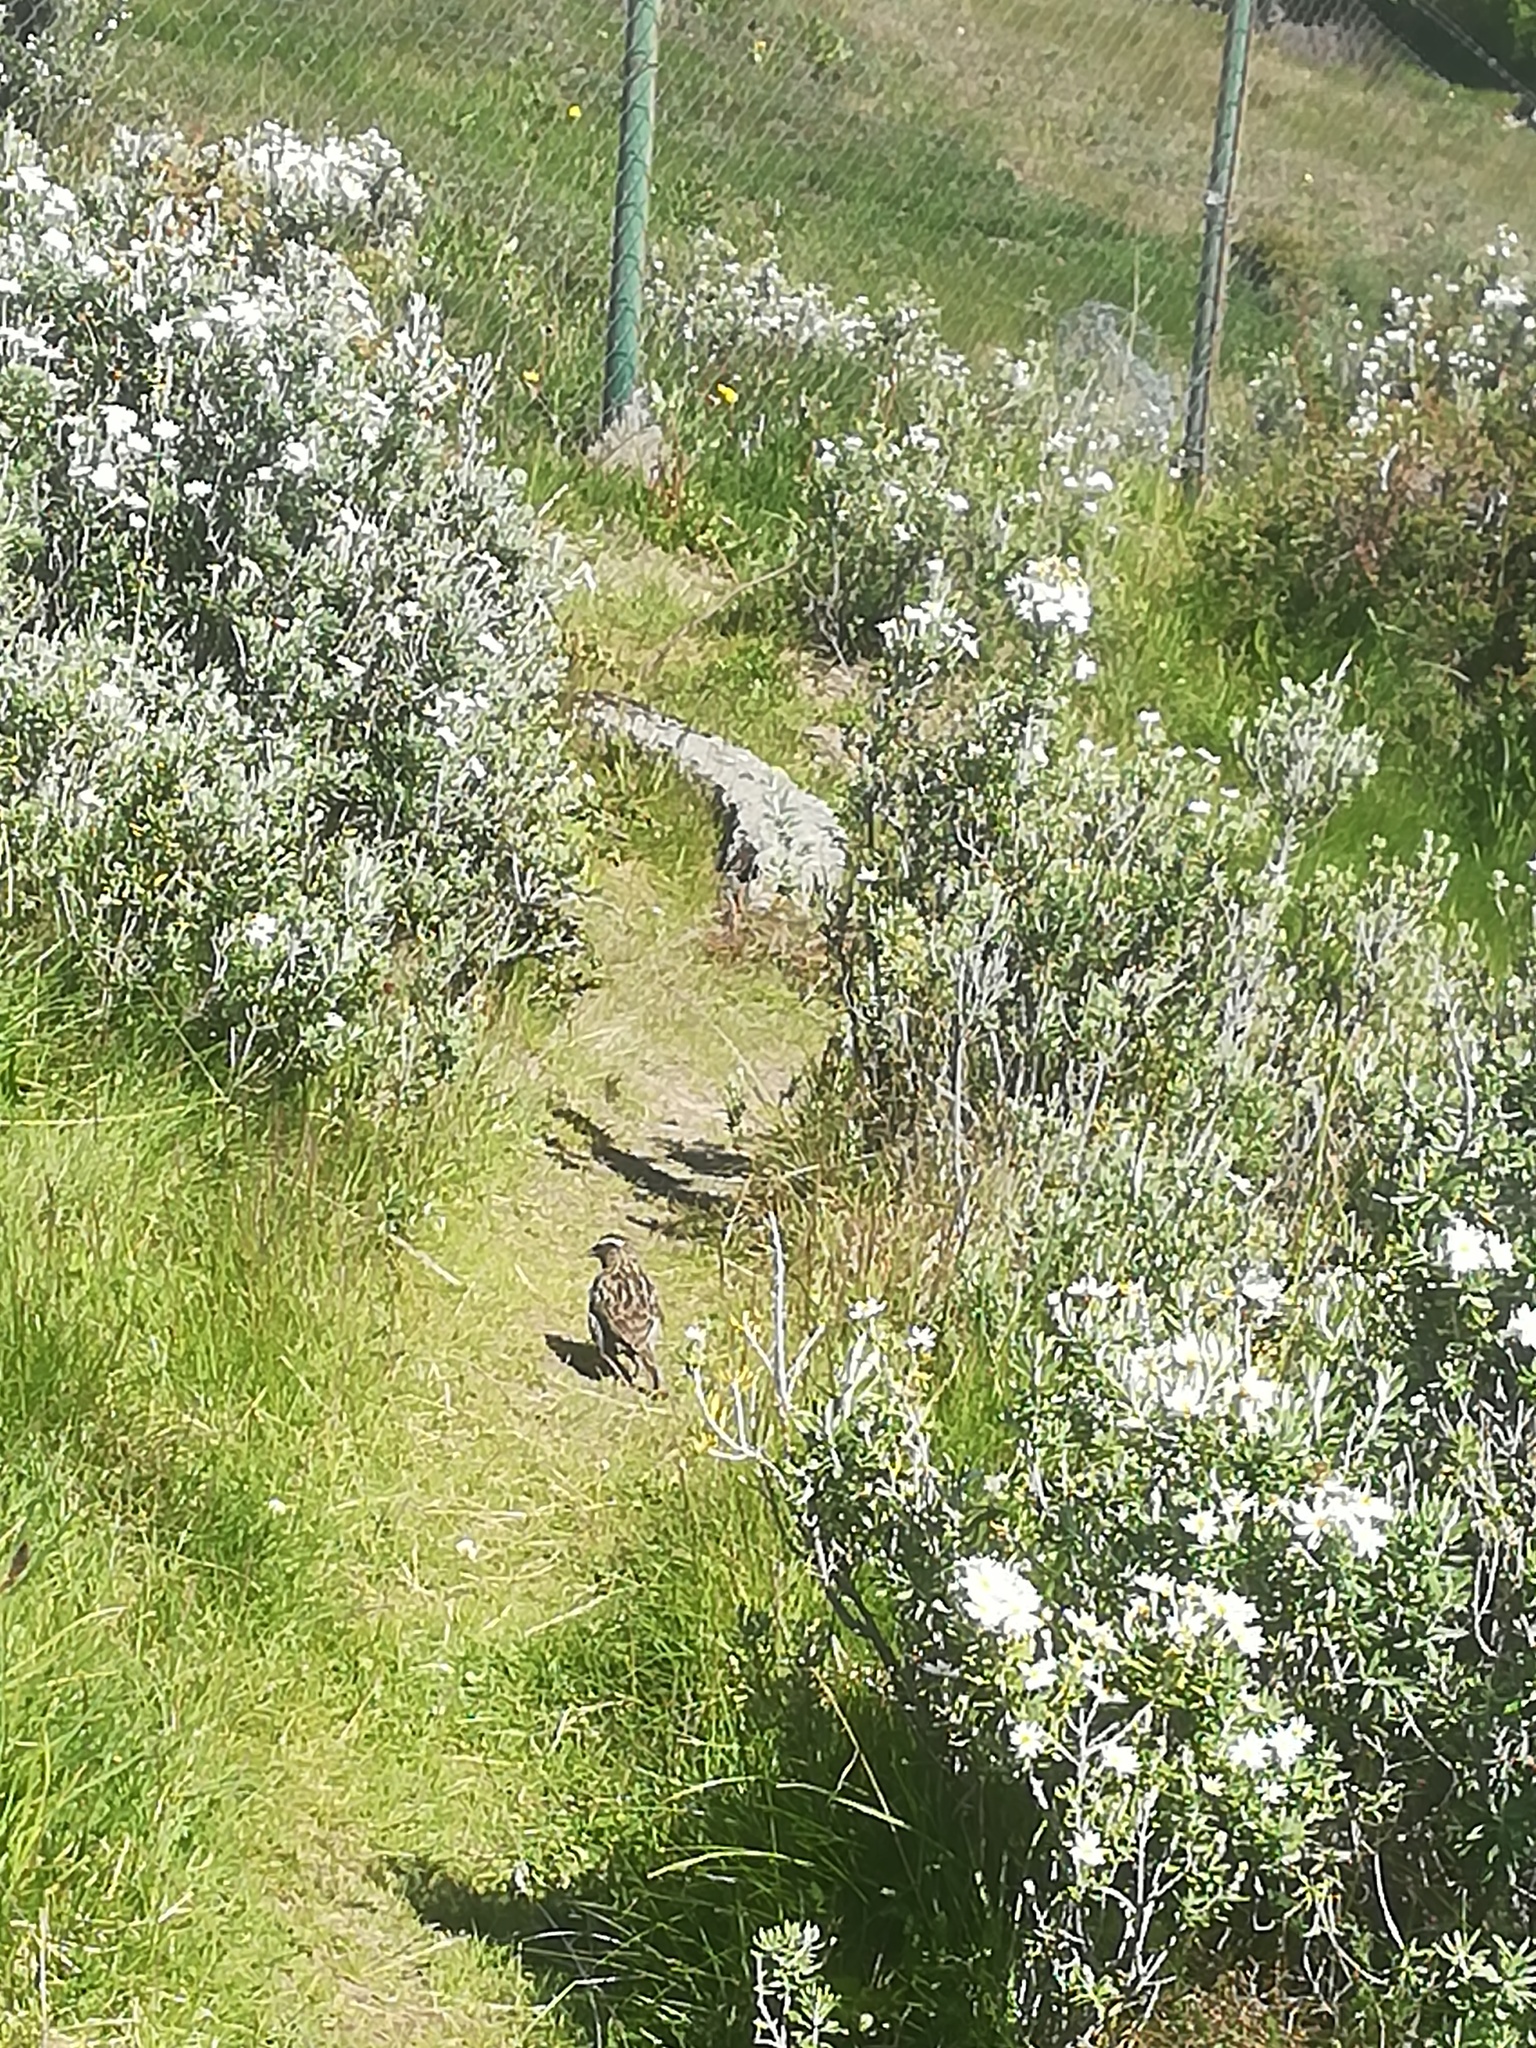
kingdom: Animalia
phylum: Chordata
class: Aves
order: Passeriformes
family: Icteridae
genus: Sturnella
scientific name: Sturnella loyca
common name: Long-tailed meadowlark
